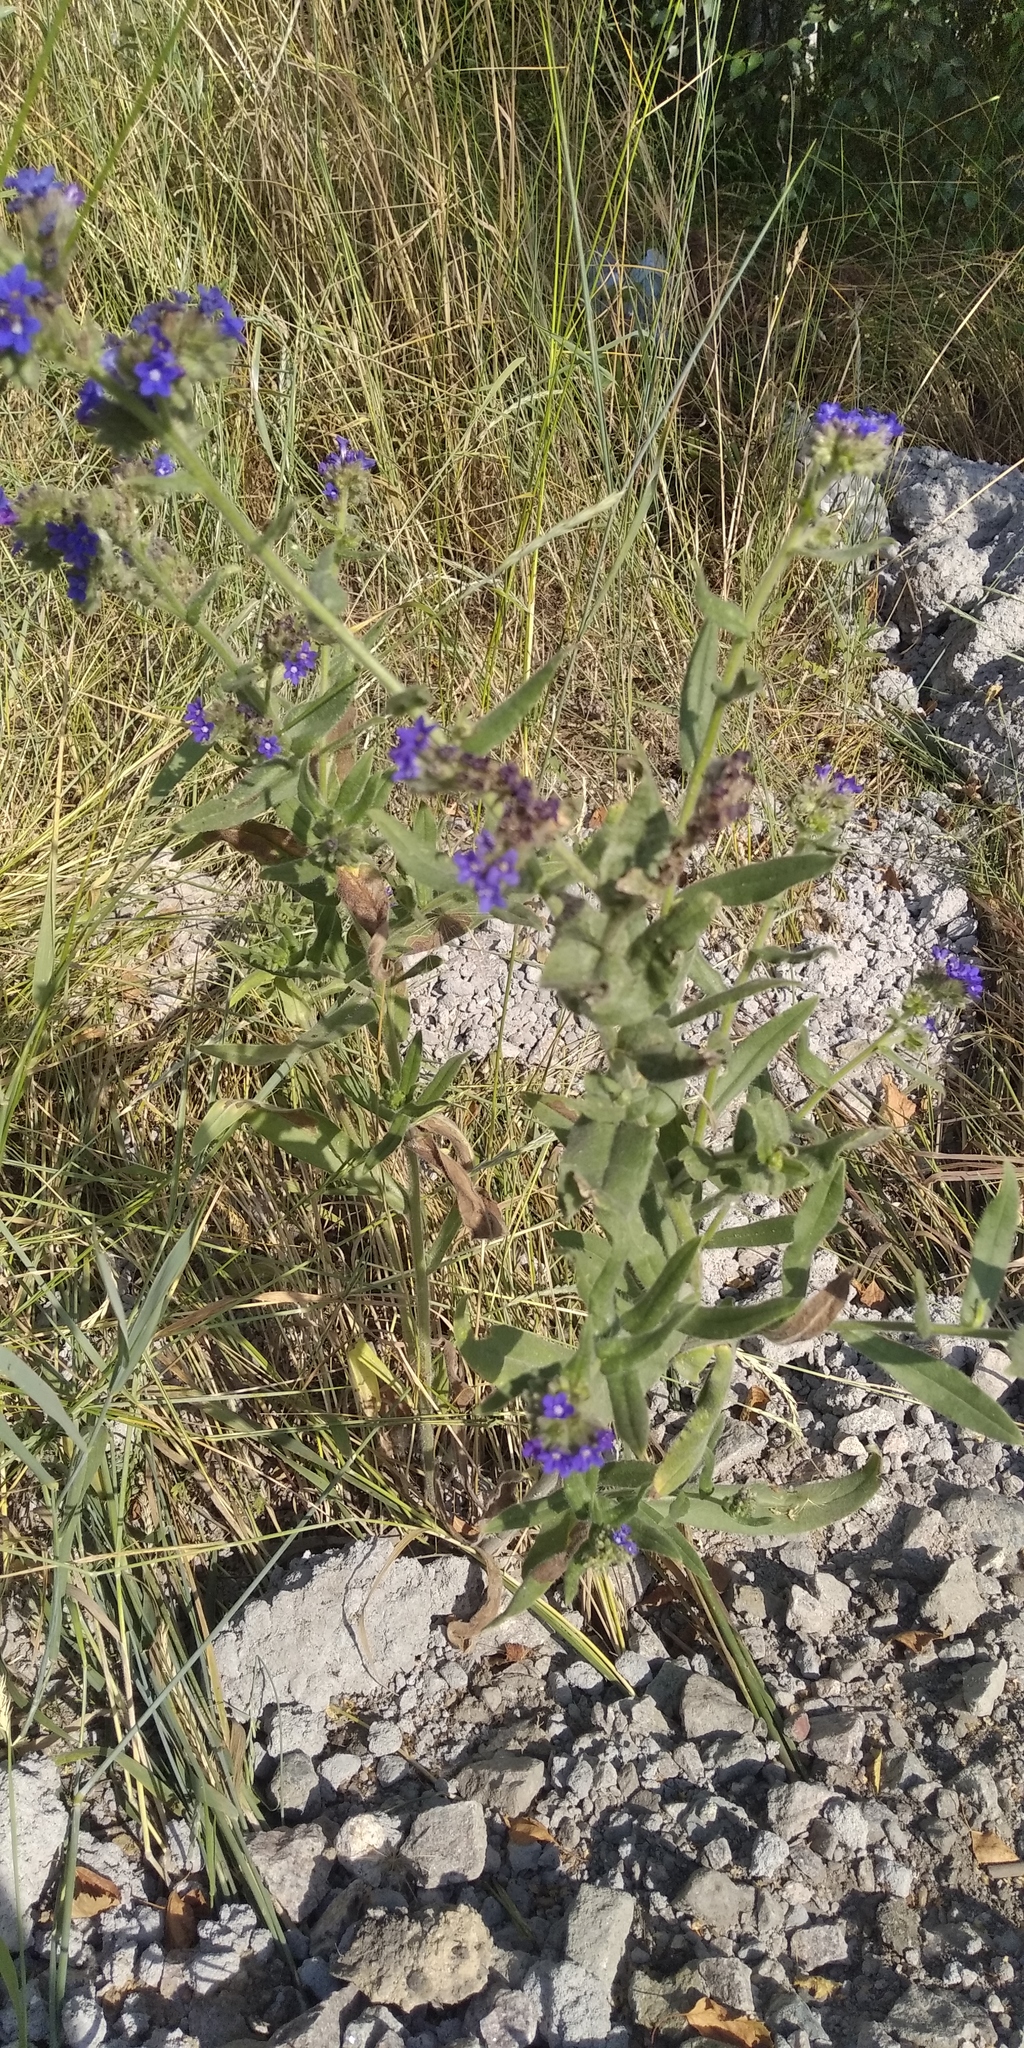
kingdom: Plantae
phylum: Tracheophyta
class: Magnoliopsida
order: Boraginales
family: Boraginaceae
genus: Anchusa
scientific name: Anchusa officinalis
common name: Alkanet
